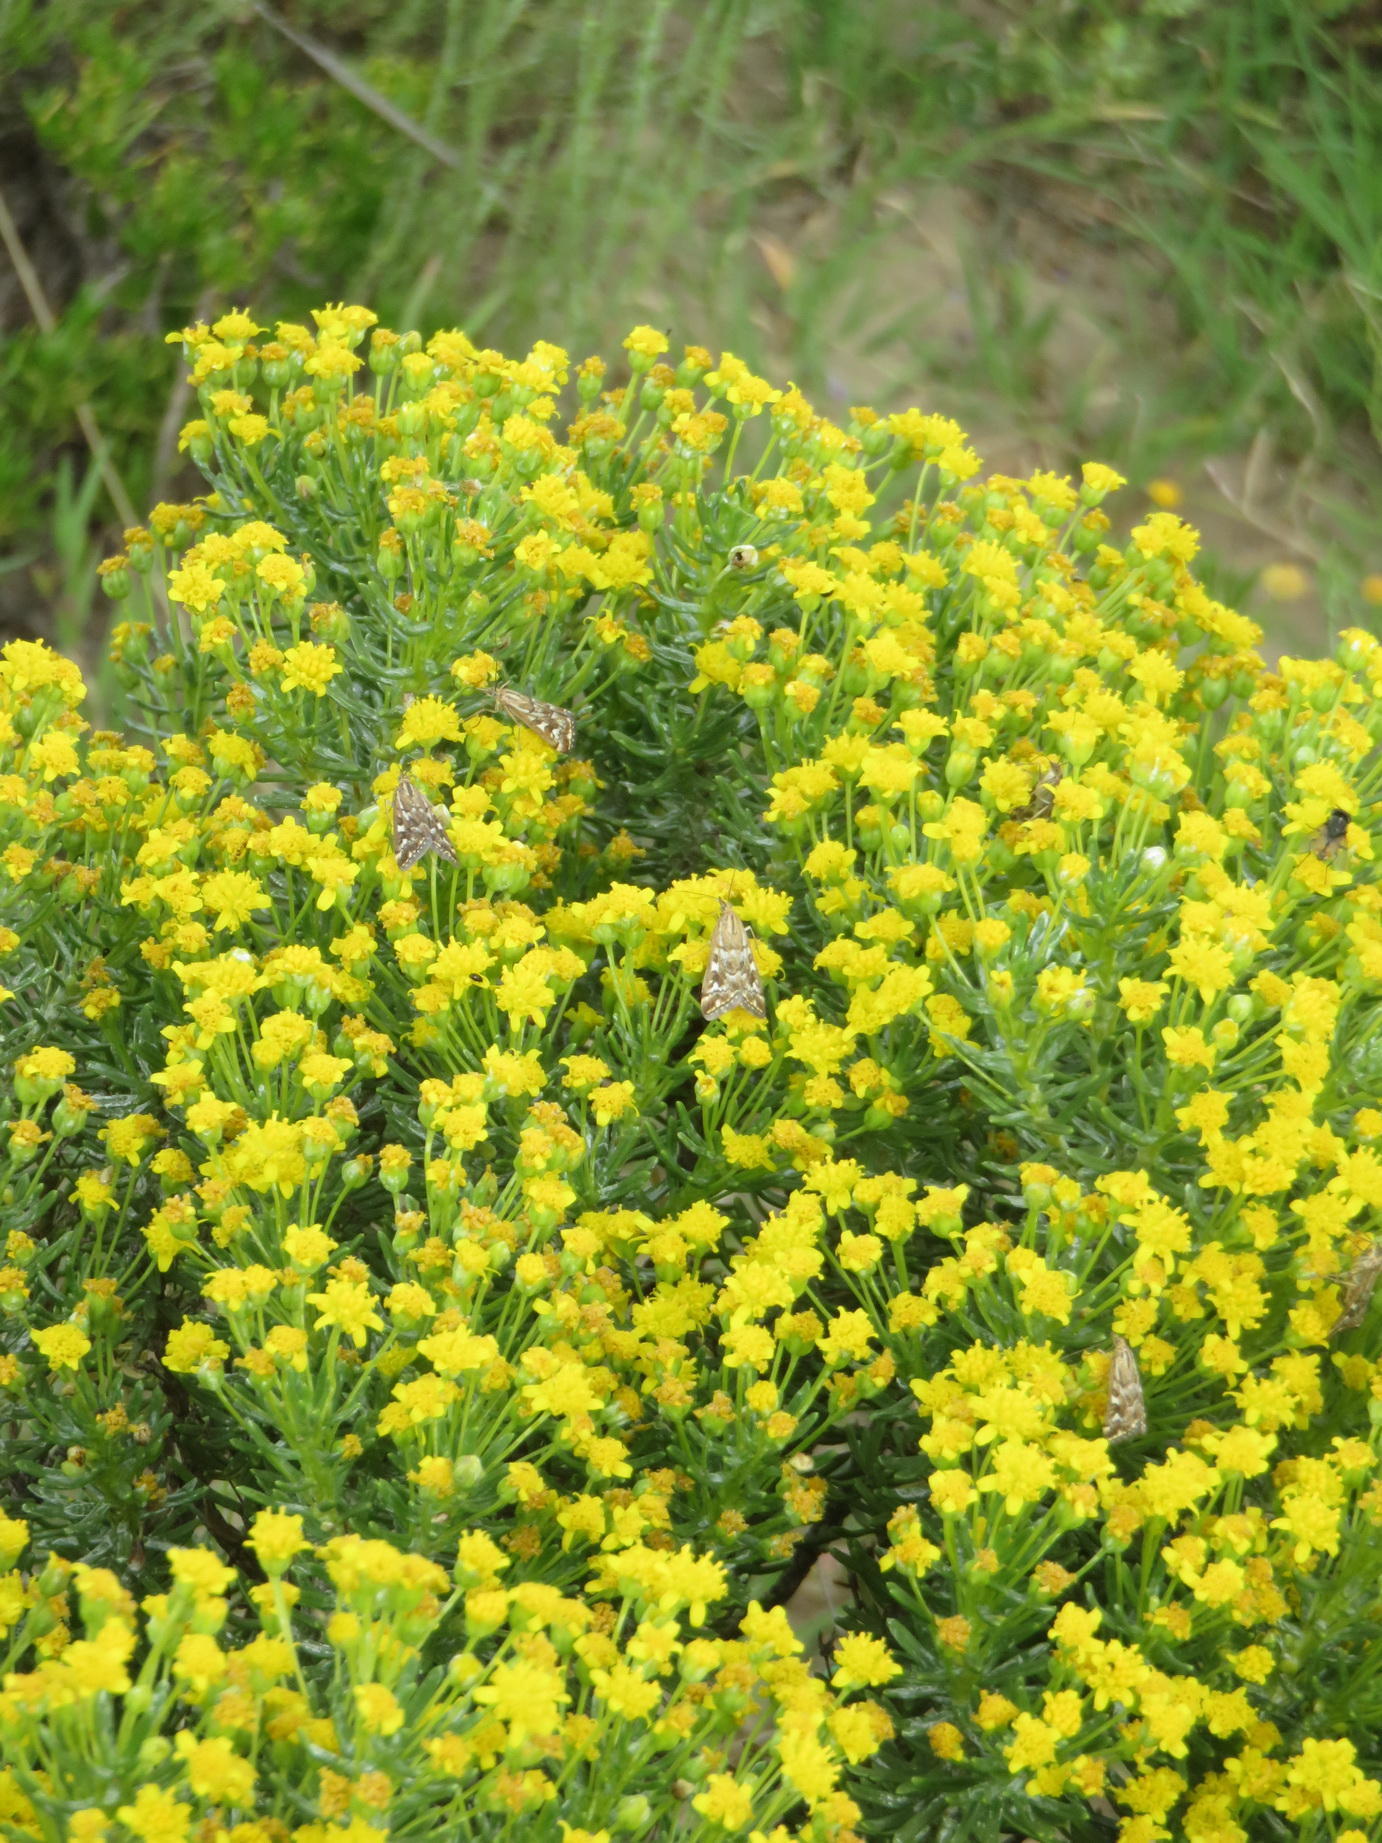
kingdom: Plantae
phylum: Tracheophyta
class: Magnoliopsida
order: Asterales
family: Asteraceae
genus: Euryops
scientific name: Euryops floribundus
